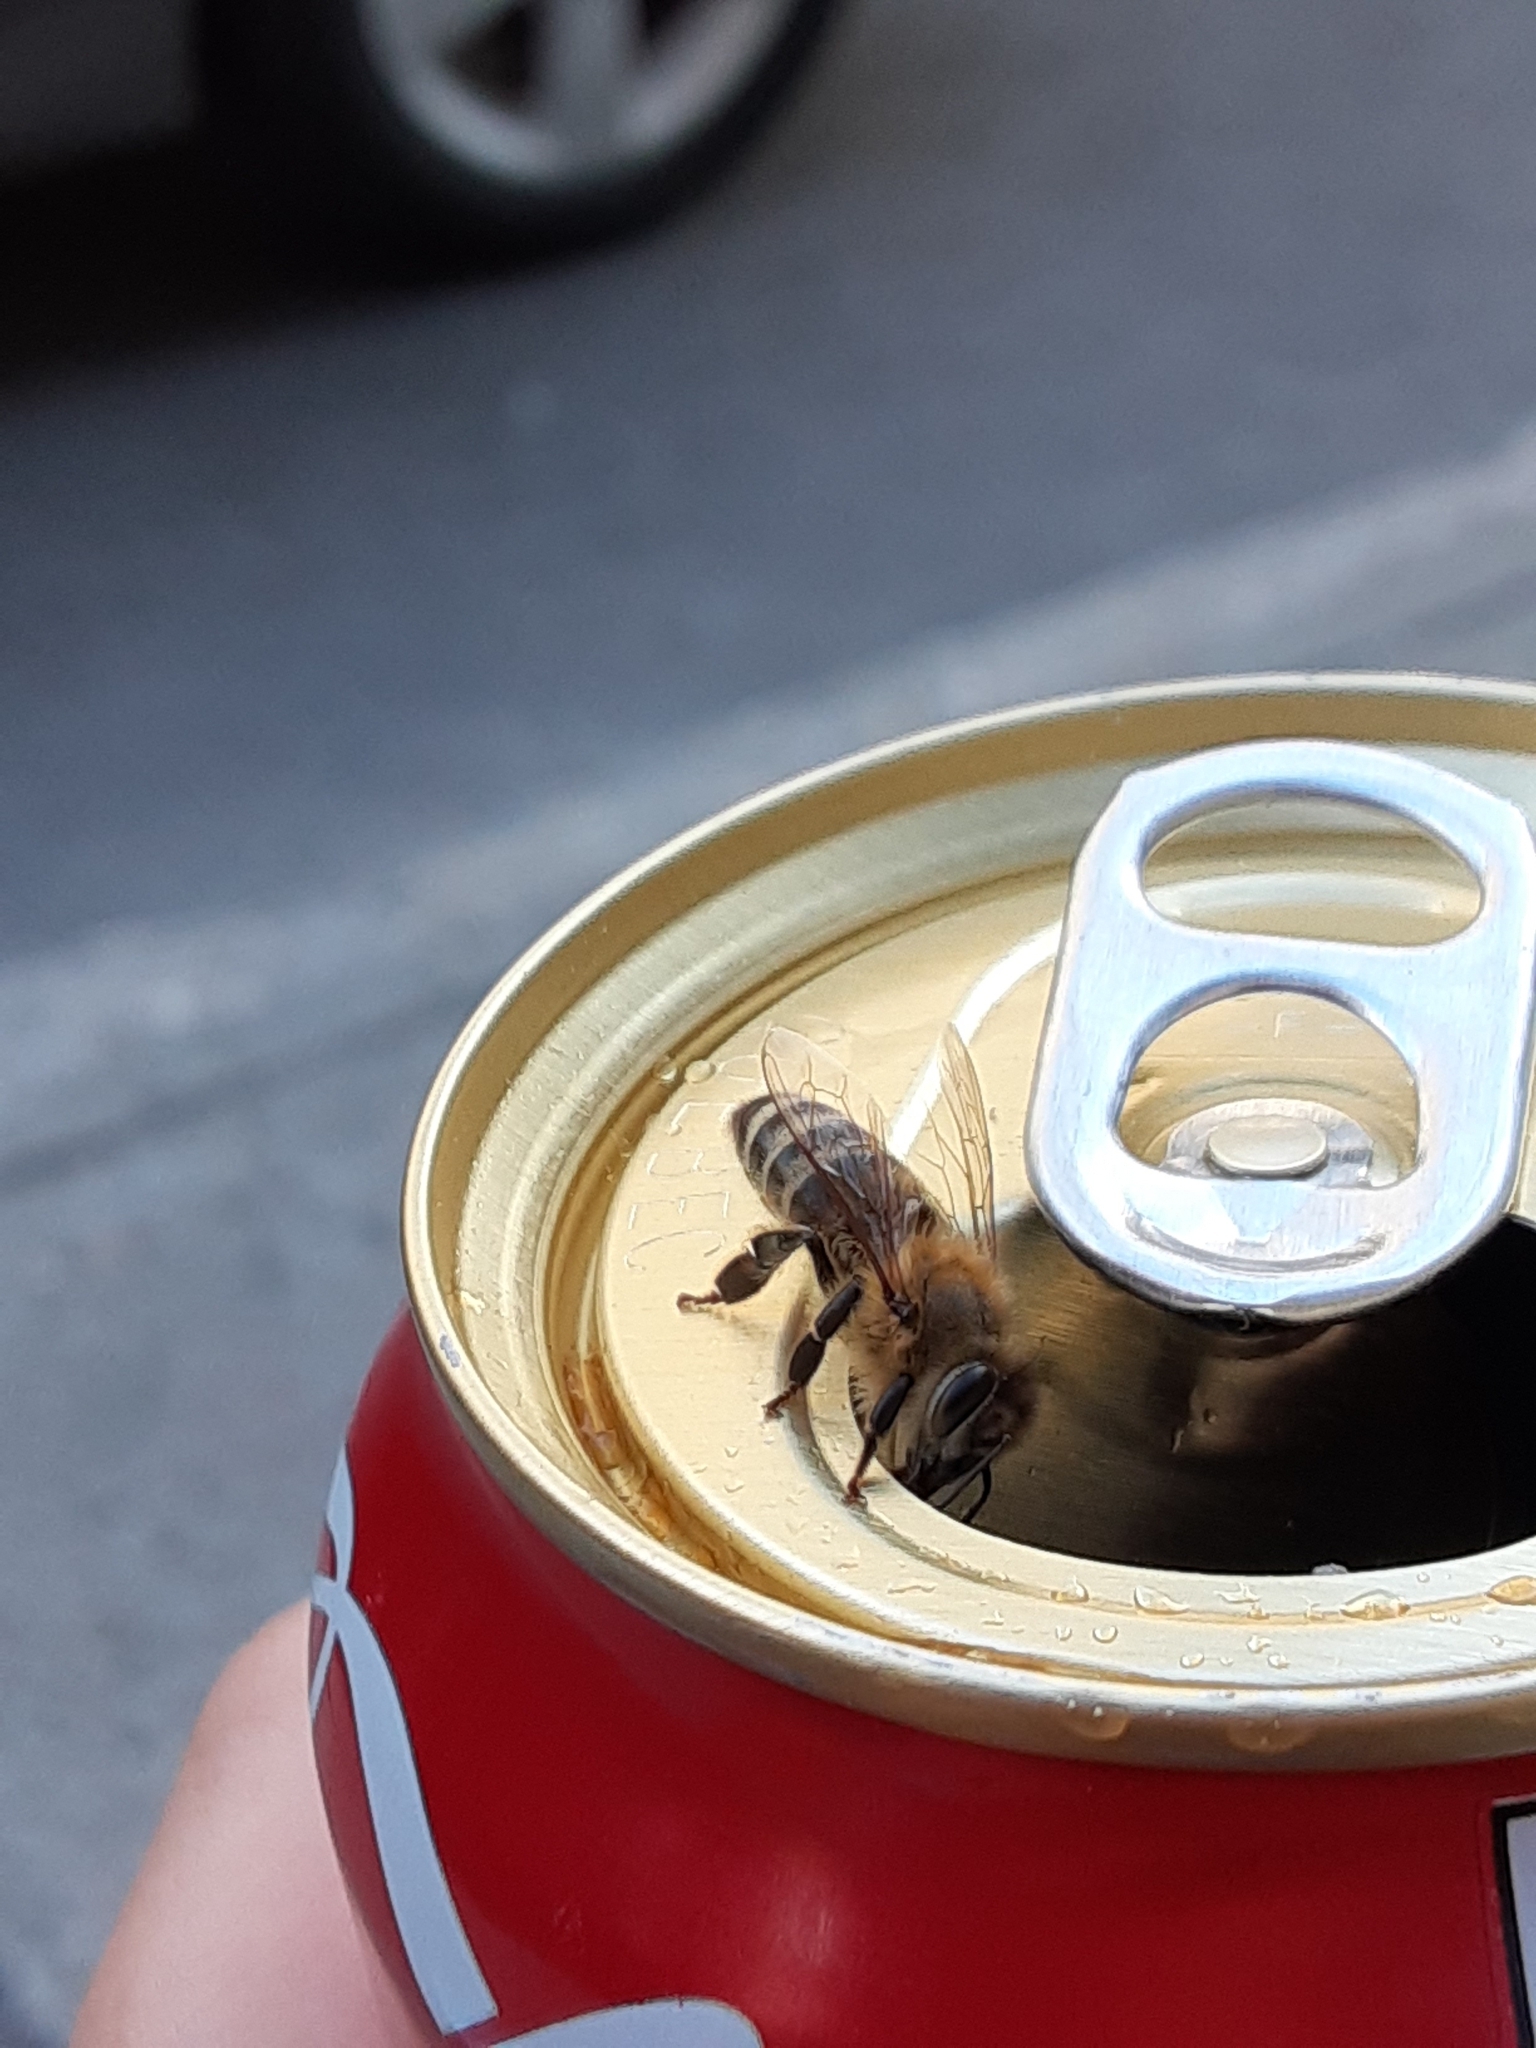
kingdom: Animalia
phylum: Arthropoda
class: Insecta
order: Hymenoptera
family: Apidae
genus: Apis
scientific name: Apis mellifera
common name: Honey bee
